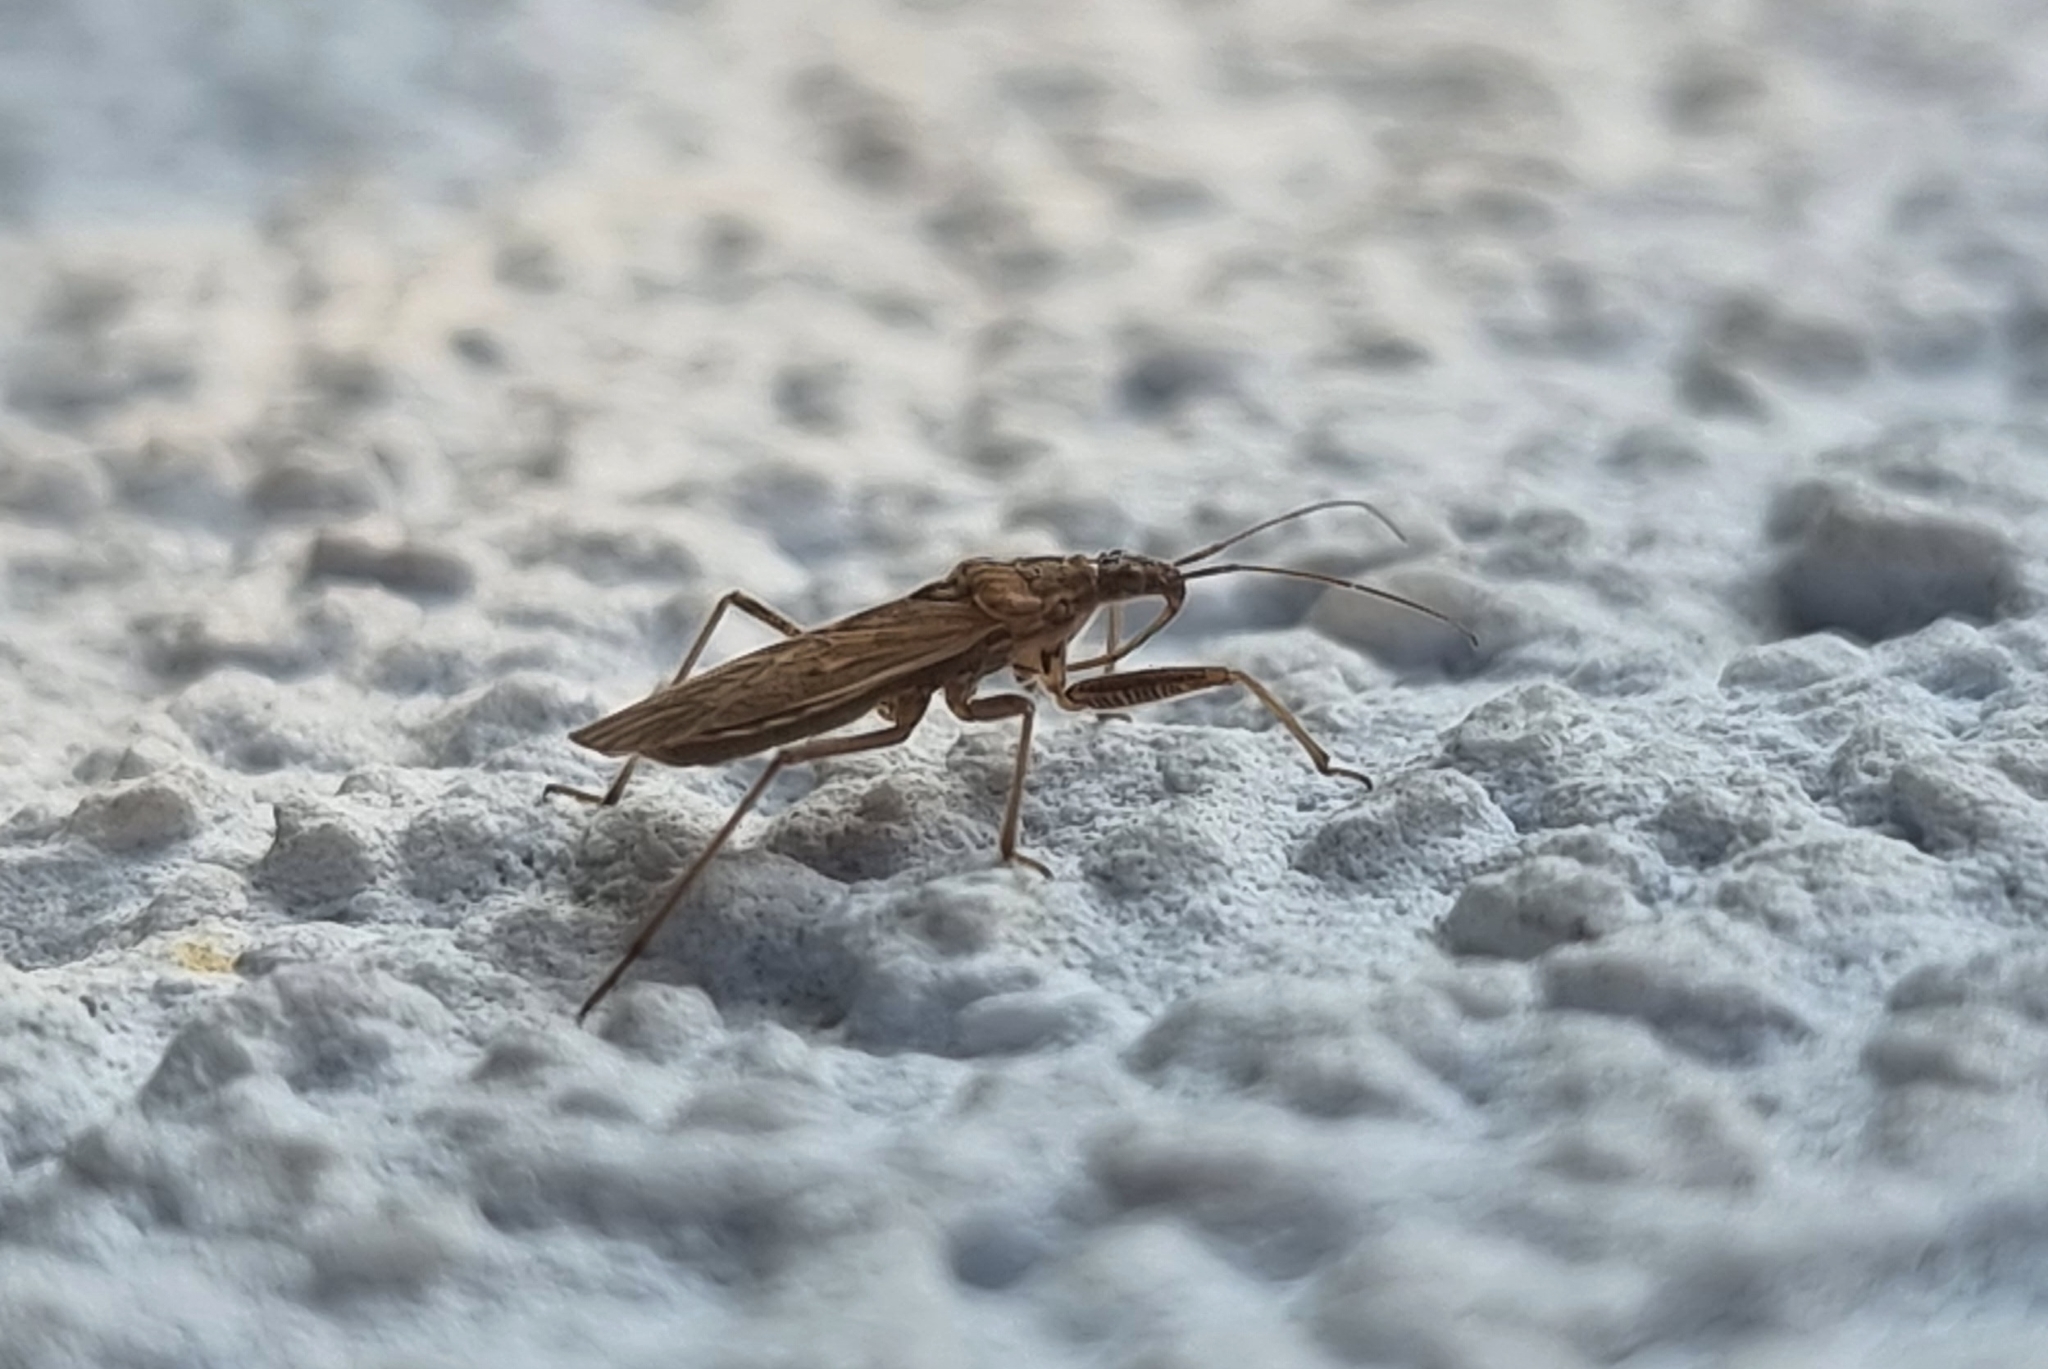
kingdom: Animalia
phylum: Arthropoda
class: Insecta
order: Hemiptera
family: Nabidae
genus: Nabis
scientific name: Nabis
